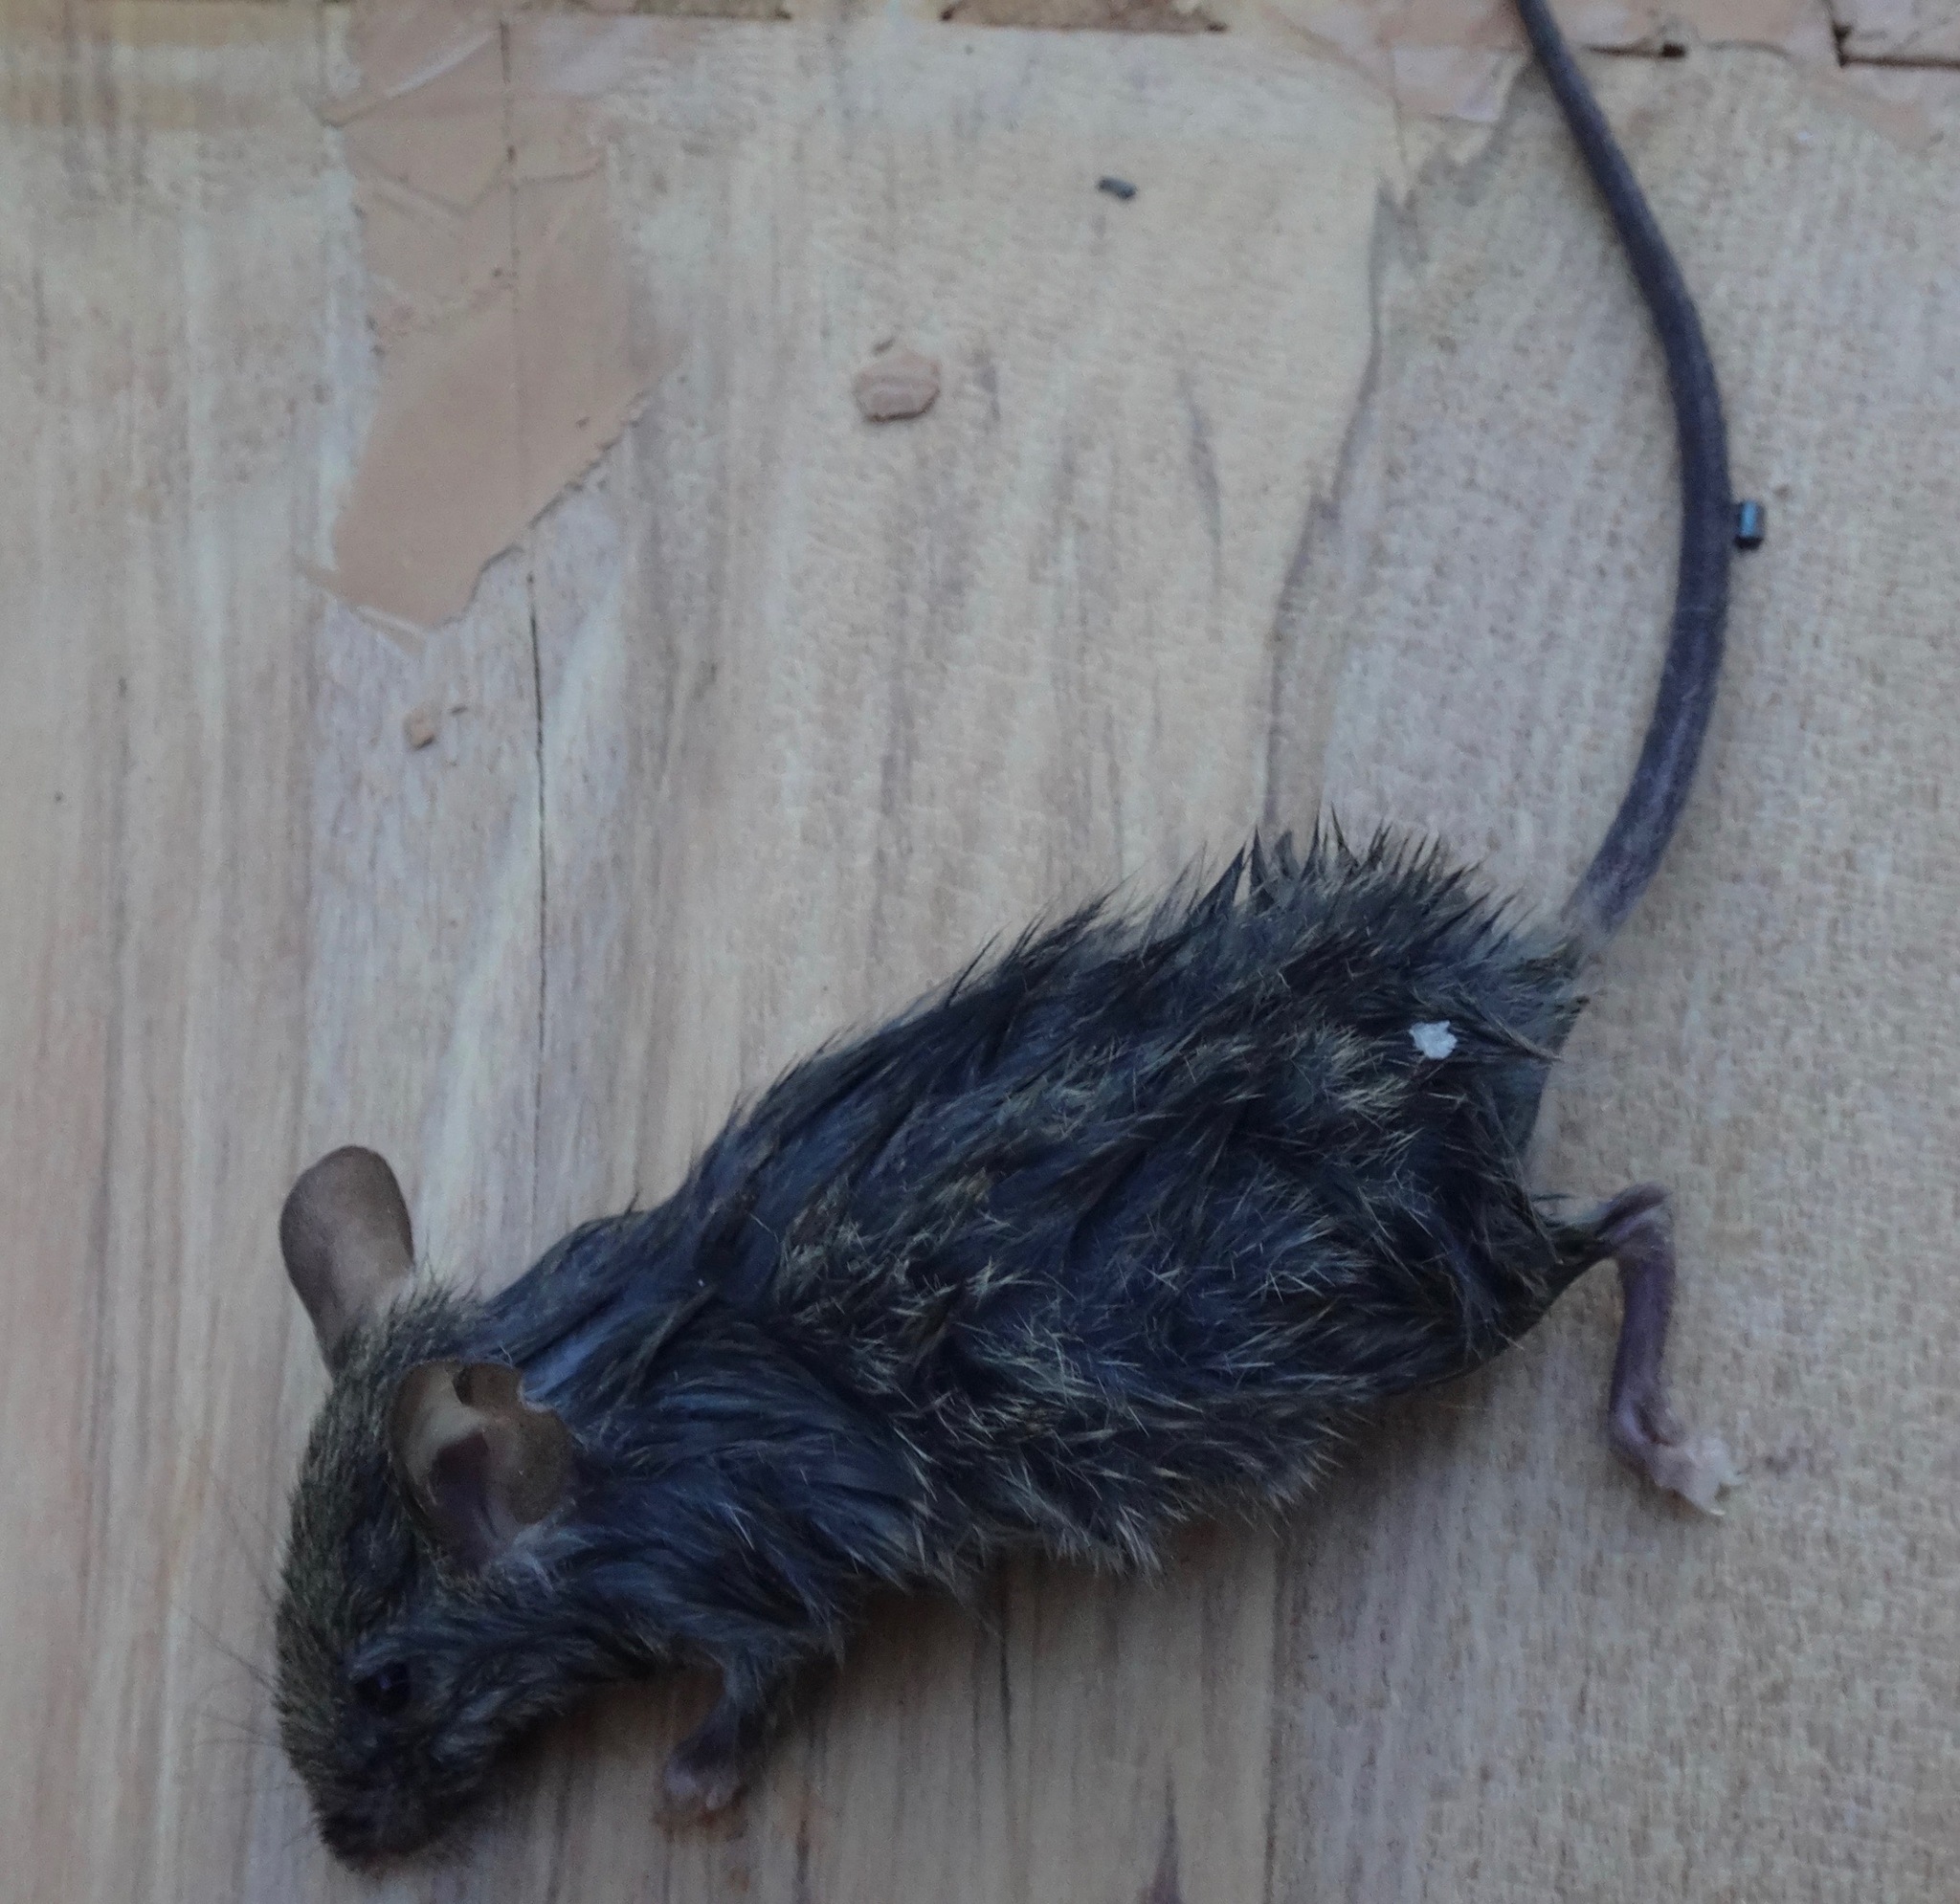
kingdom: Animalia
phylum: Chordata
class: Mammalia
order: Rodentia
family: Muridae
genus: Mus
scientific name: Mus musculus
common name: House mouse
